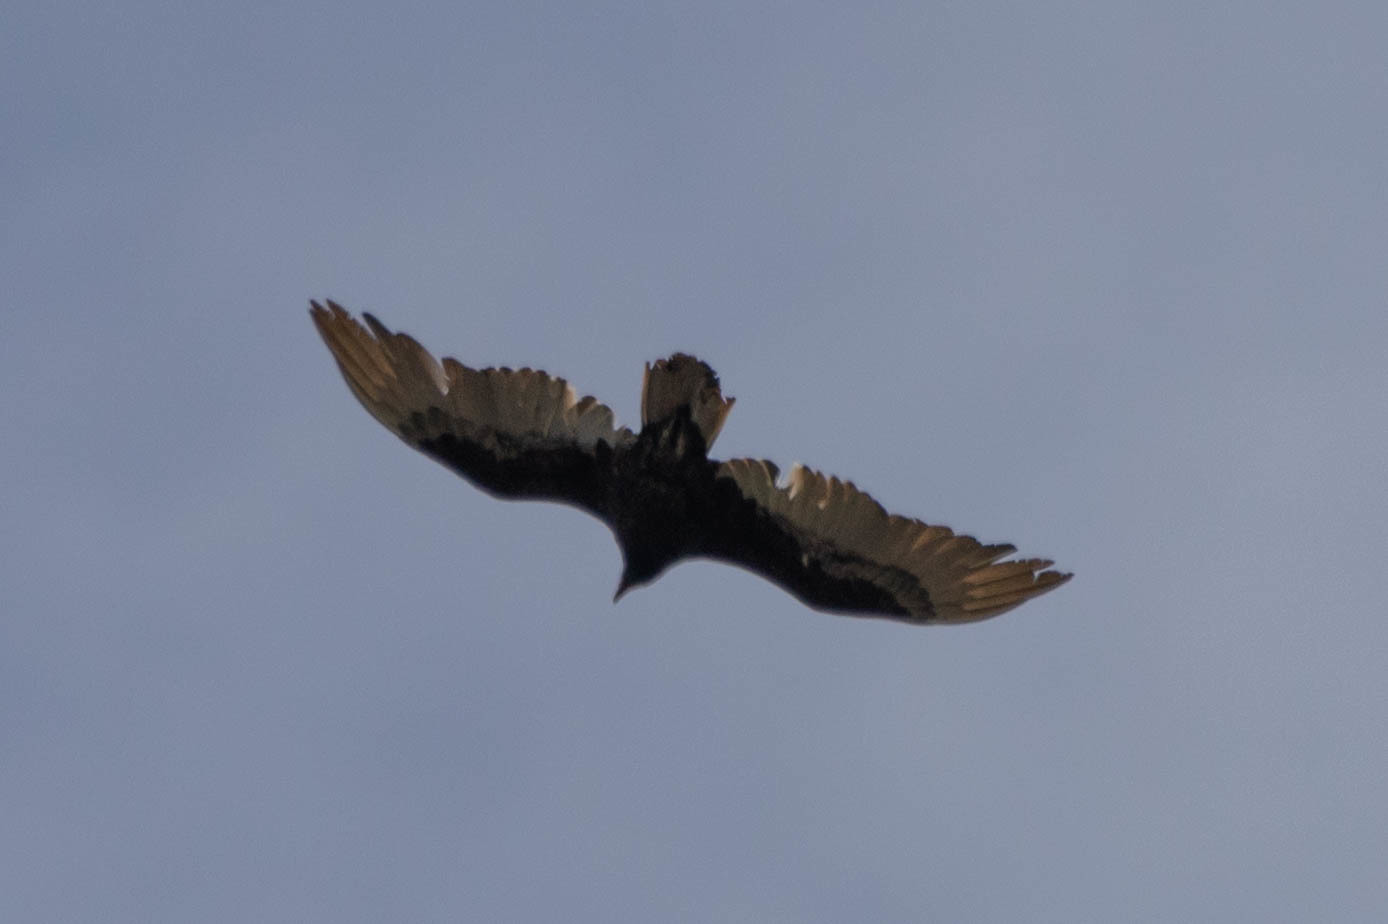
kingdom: Animalia
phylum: Chordata
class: Aves
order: Accipitriformes
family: Cathartidae
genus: Cathartes
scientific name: Cathartes aura
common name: Turkey vulture
